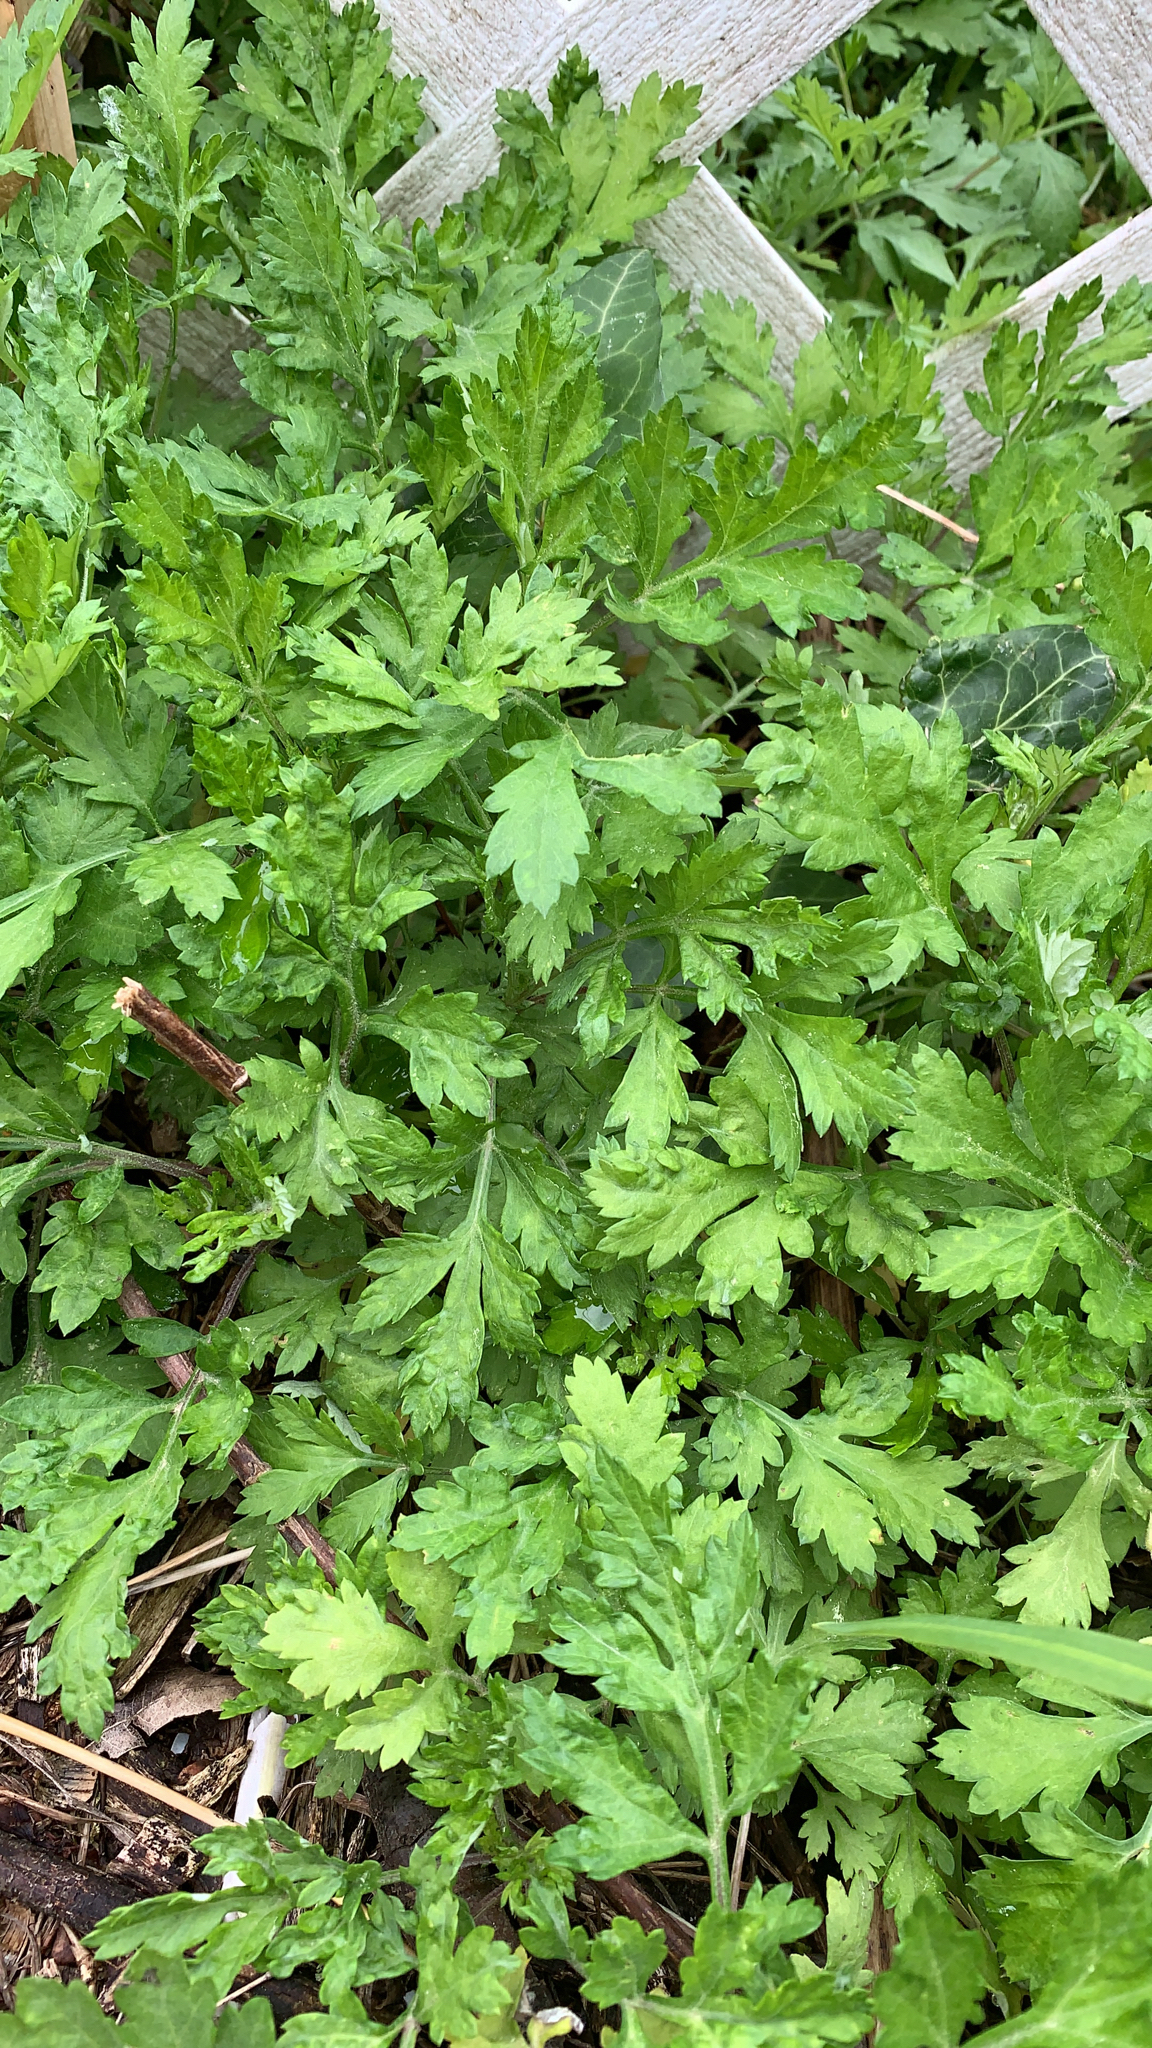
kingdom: Plantae
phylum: Tracheophyta
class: Magnoliopsida
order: Asterales
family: Asteraceae
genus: Artemisia
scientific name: Artemisia vulgaris
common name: Mugwort
